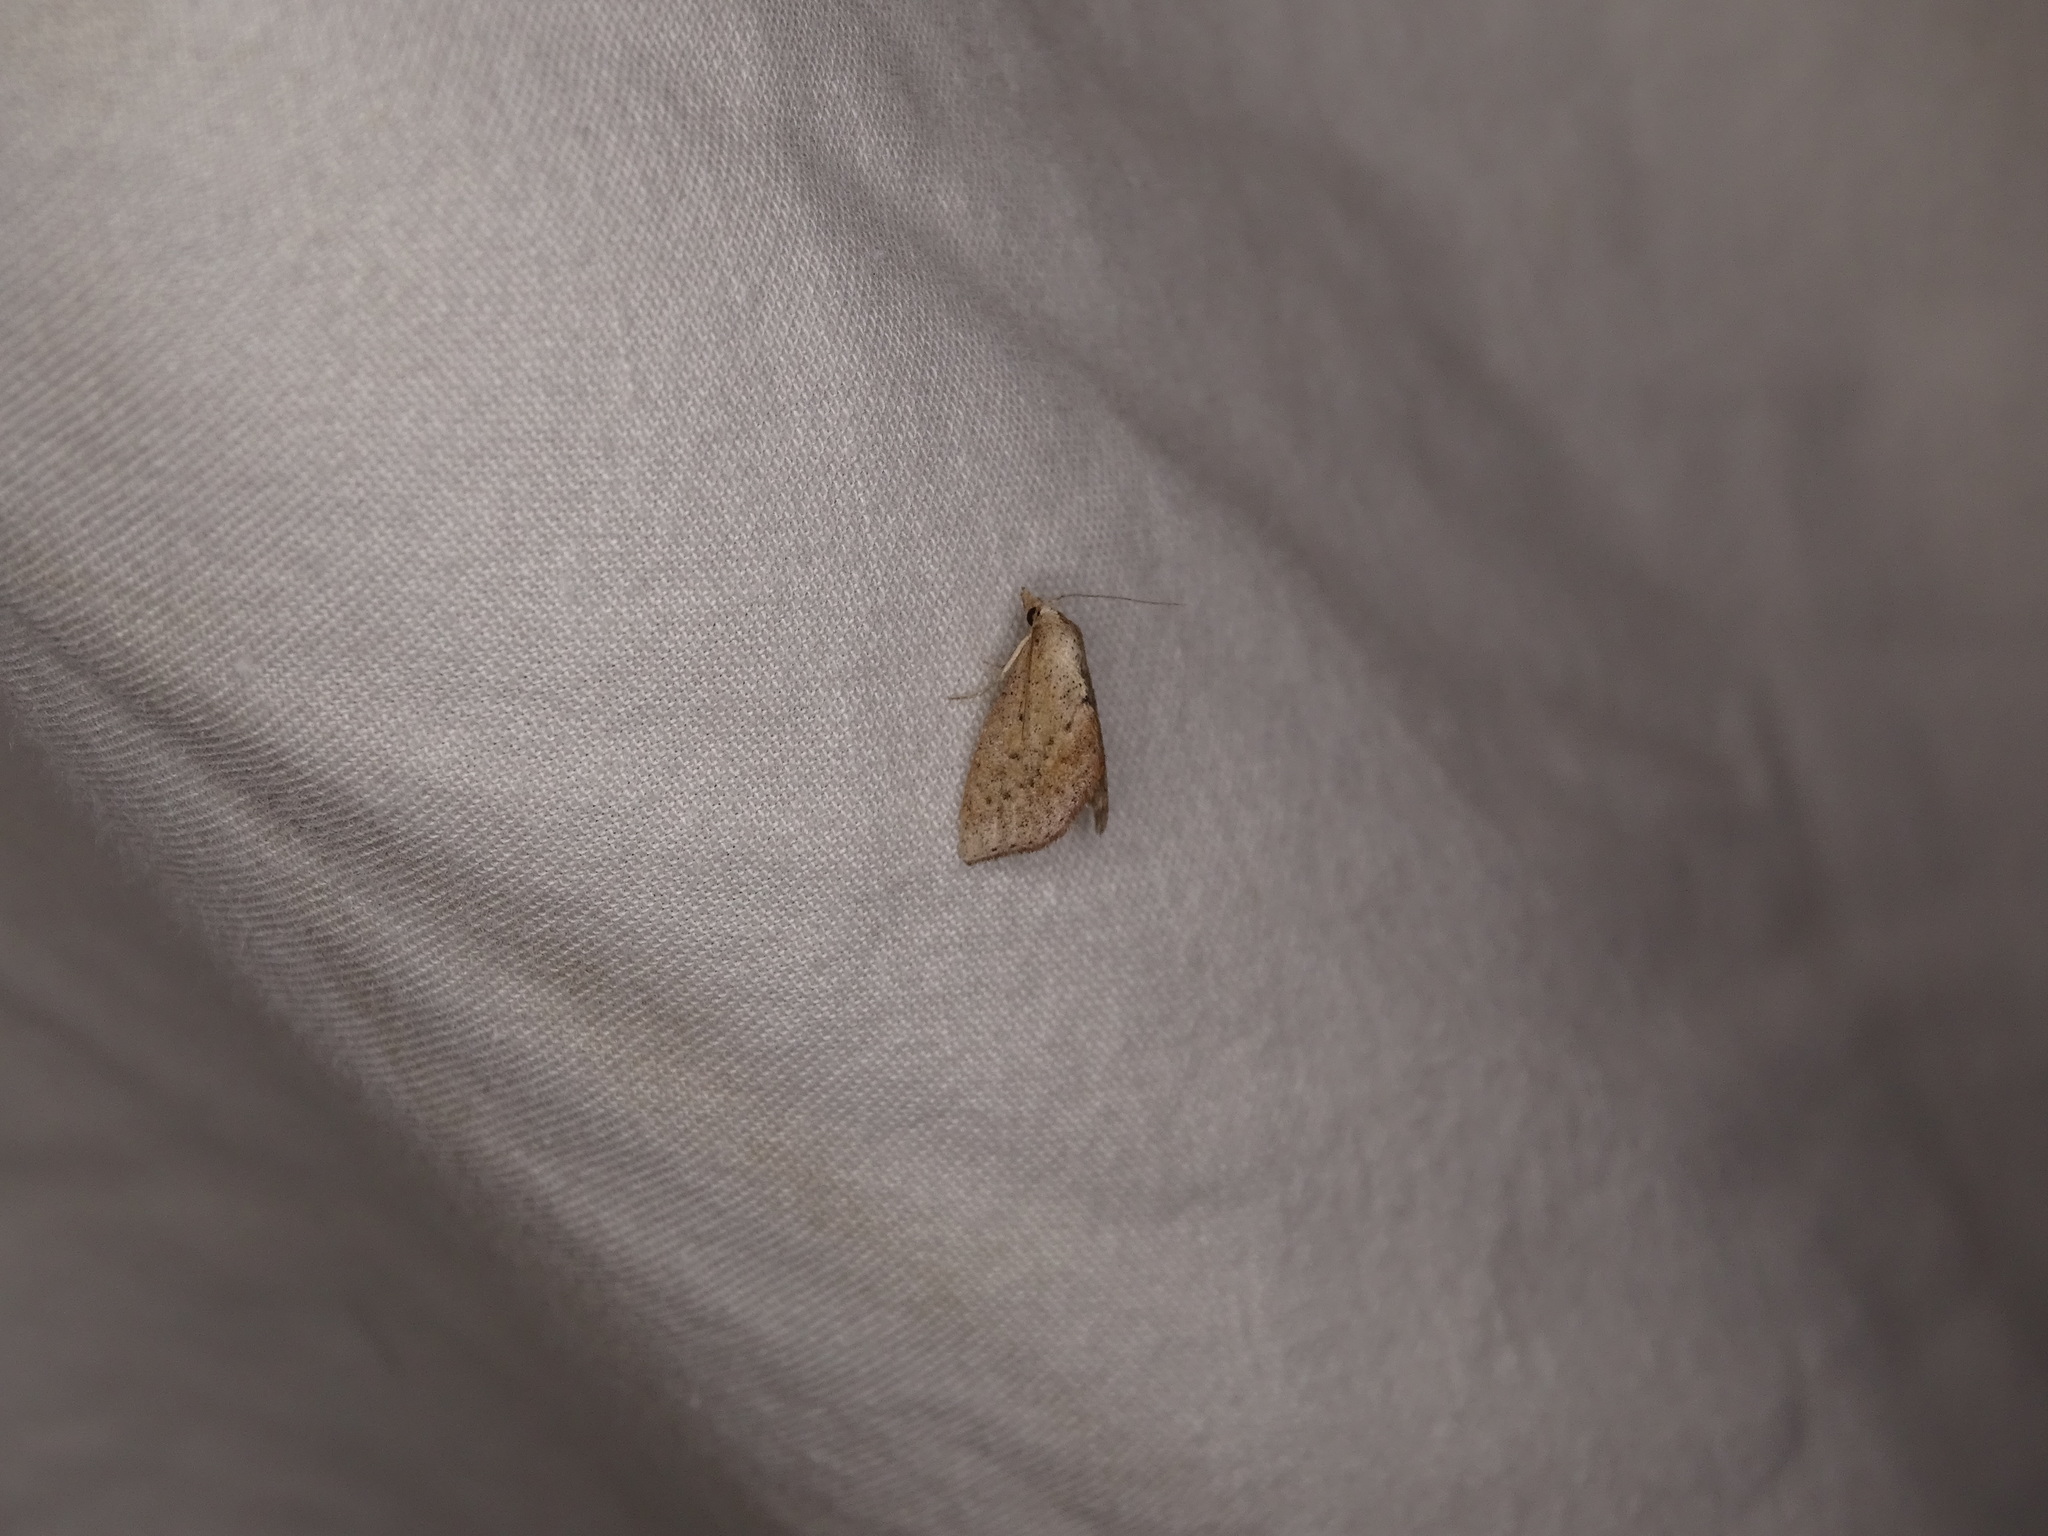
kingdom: Animalia
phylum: Arthropoda
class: Insecta
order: Lepidoptera
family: Noctuidae
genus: Proroblemma
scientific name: Proroblemma testa
